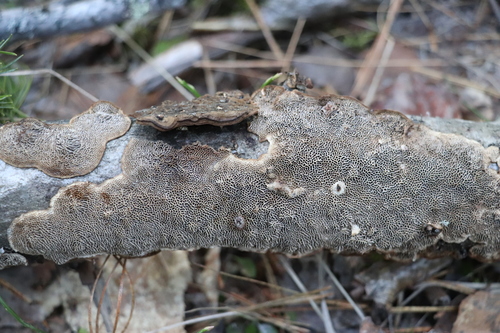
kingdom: Fungi
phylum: Basidiomycota
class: Agaricomycetes
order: Polyporales
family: Polyporaceae
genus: Podofomes
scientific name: Podofomes mollis
